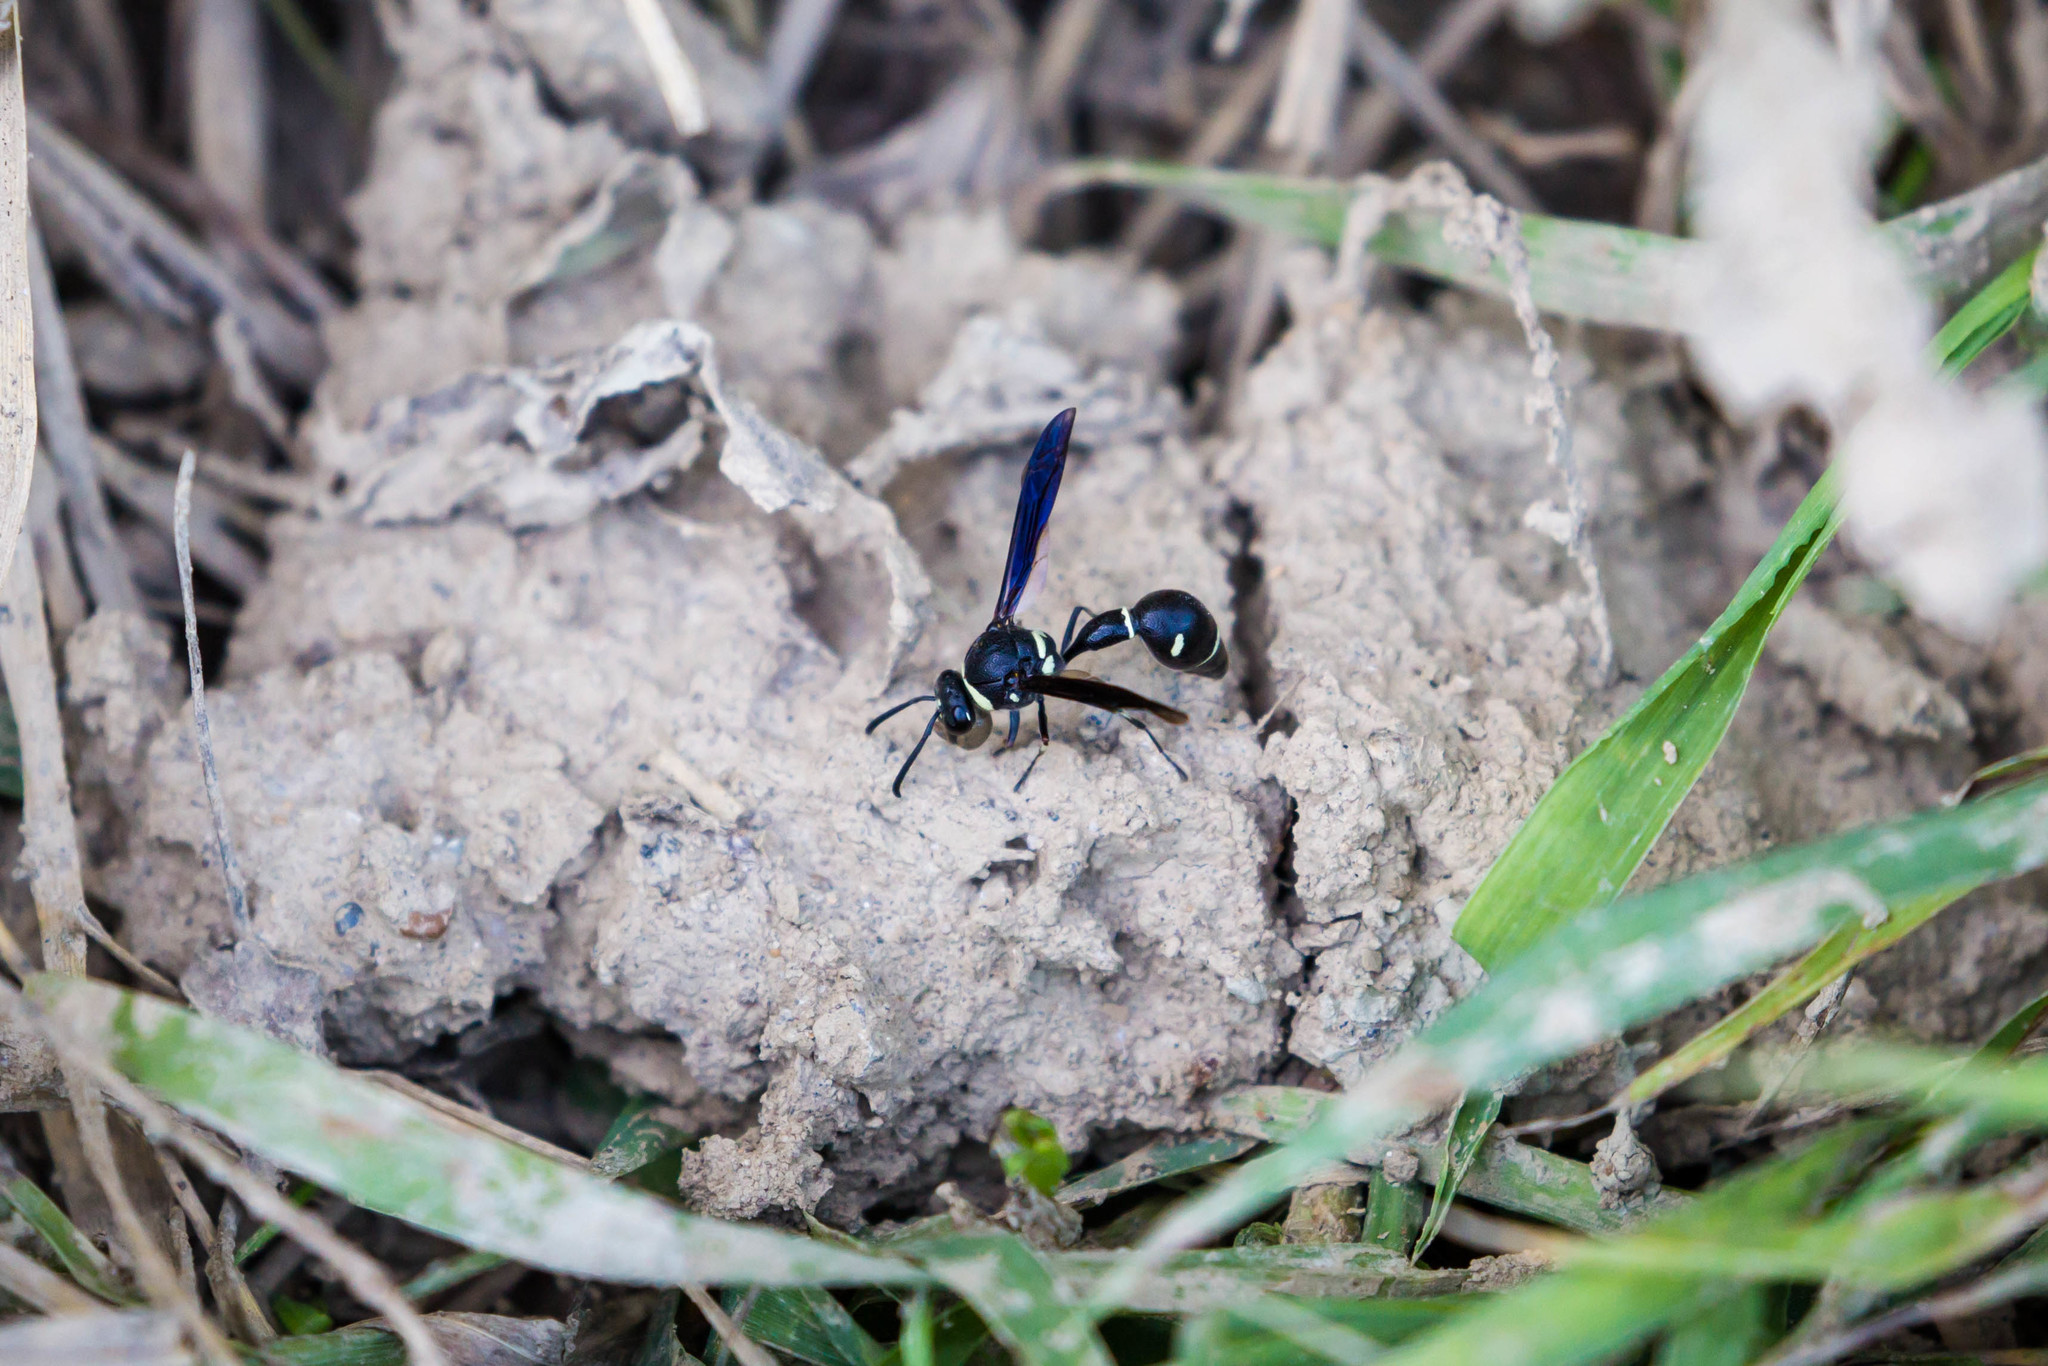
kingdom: Animalia
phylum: Arthropoda
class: Insecta
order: Hymenoptera
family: Vespidae
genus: Eumenes
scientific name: Eumenes fraternus
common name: Fraternal potter wasp
